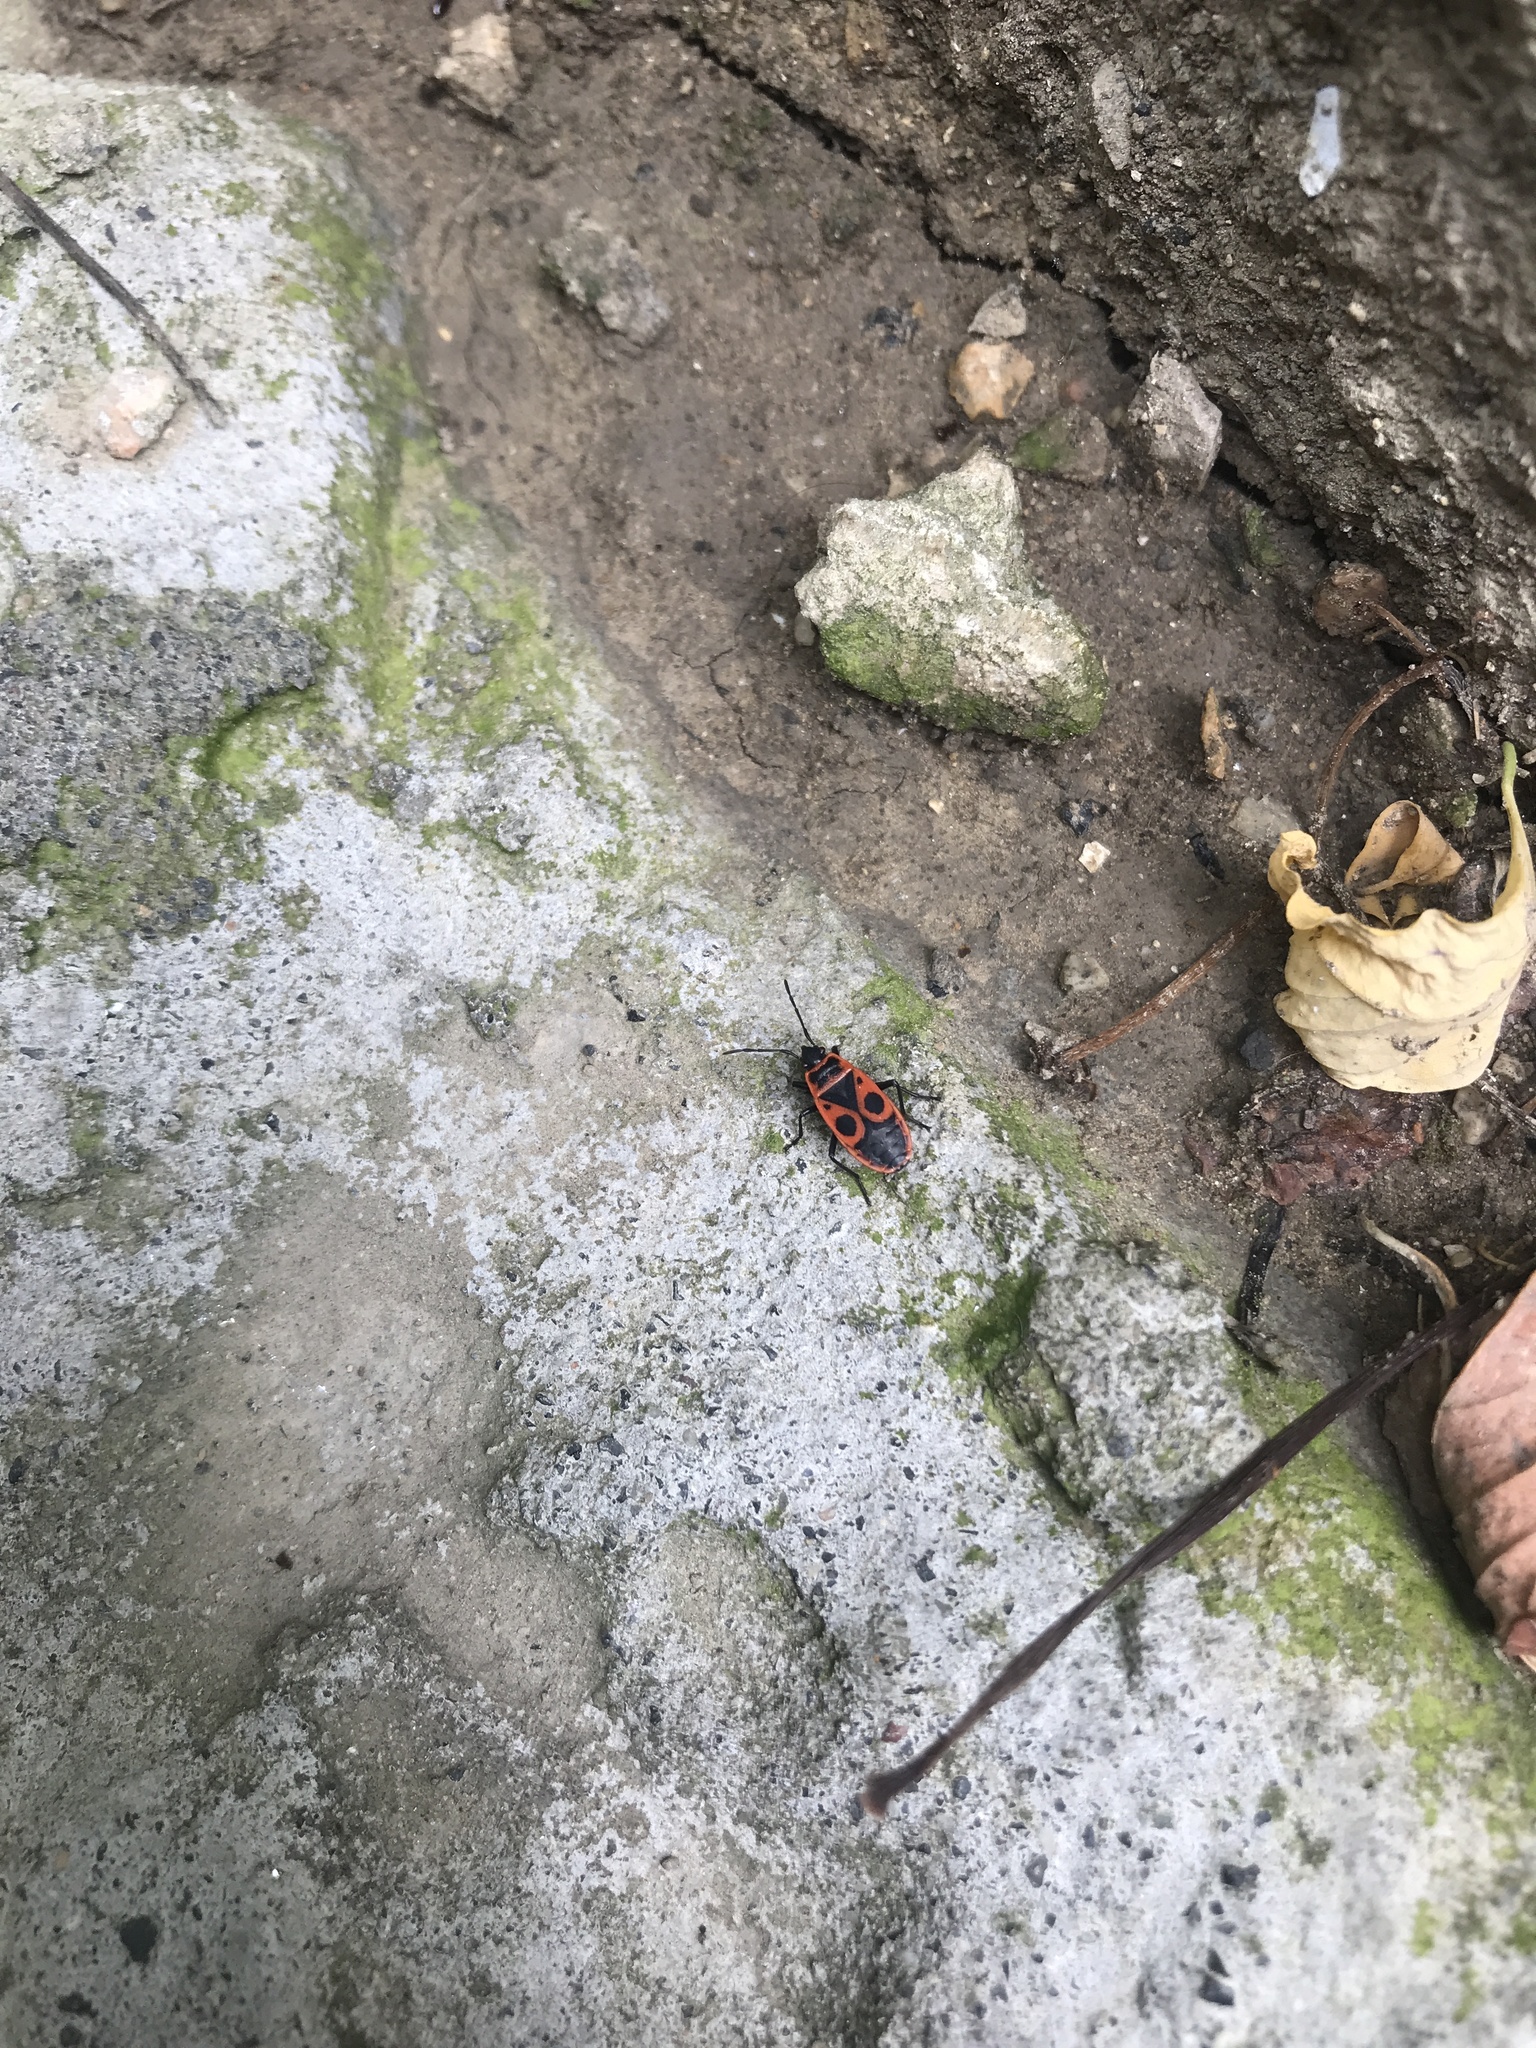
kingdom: Animalia
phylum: Arthropoda
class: Insecta
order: Hemiptera
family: Pyrrhocoridae
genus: Pyrrhocoris
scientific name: Pyrrhocoris apterus
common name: Firebug
